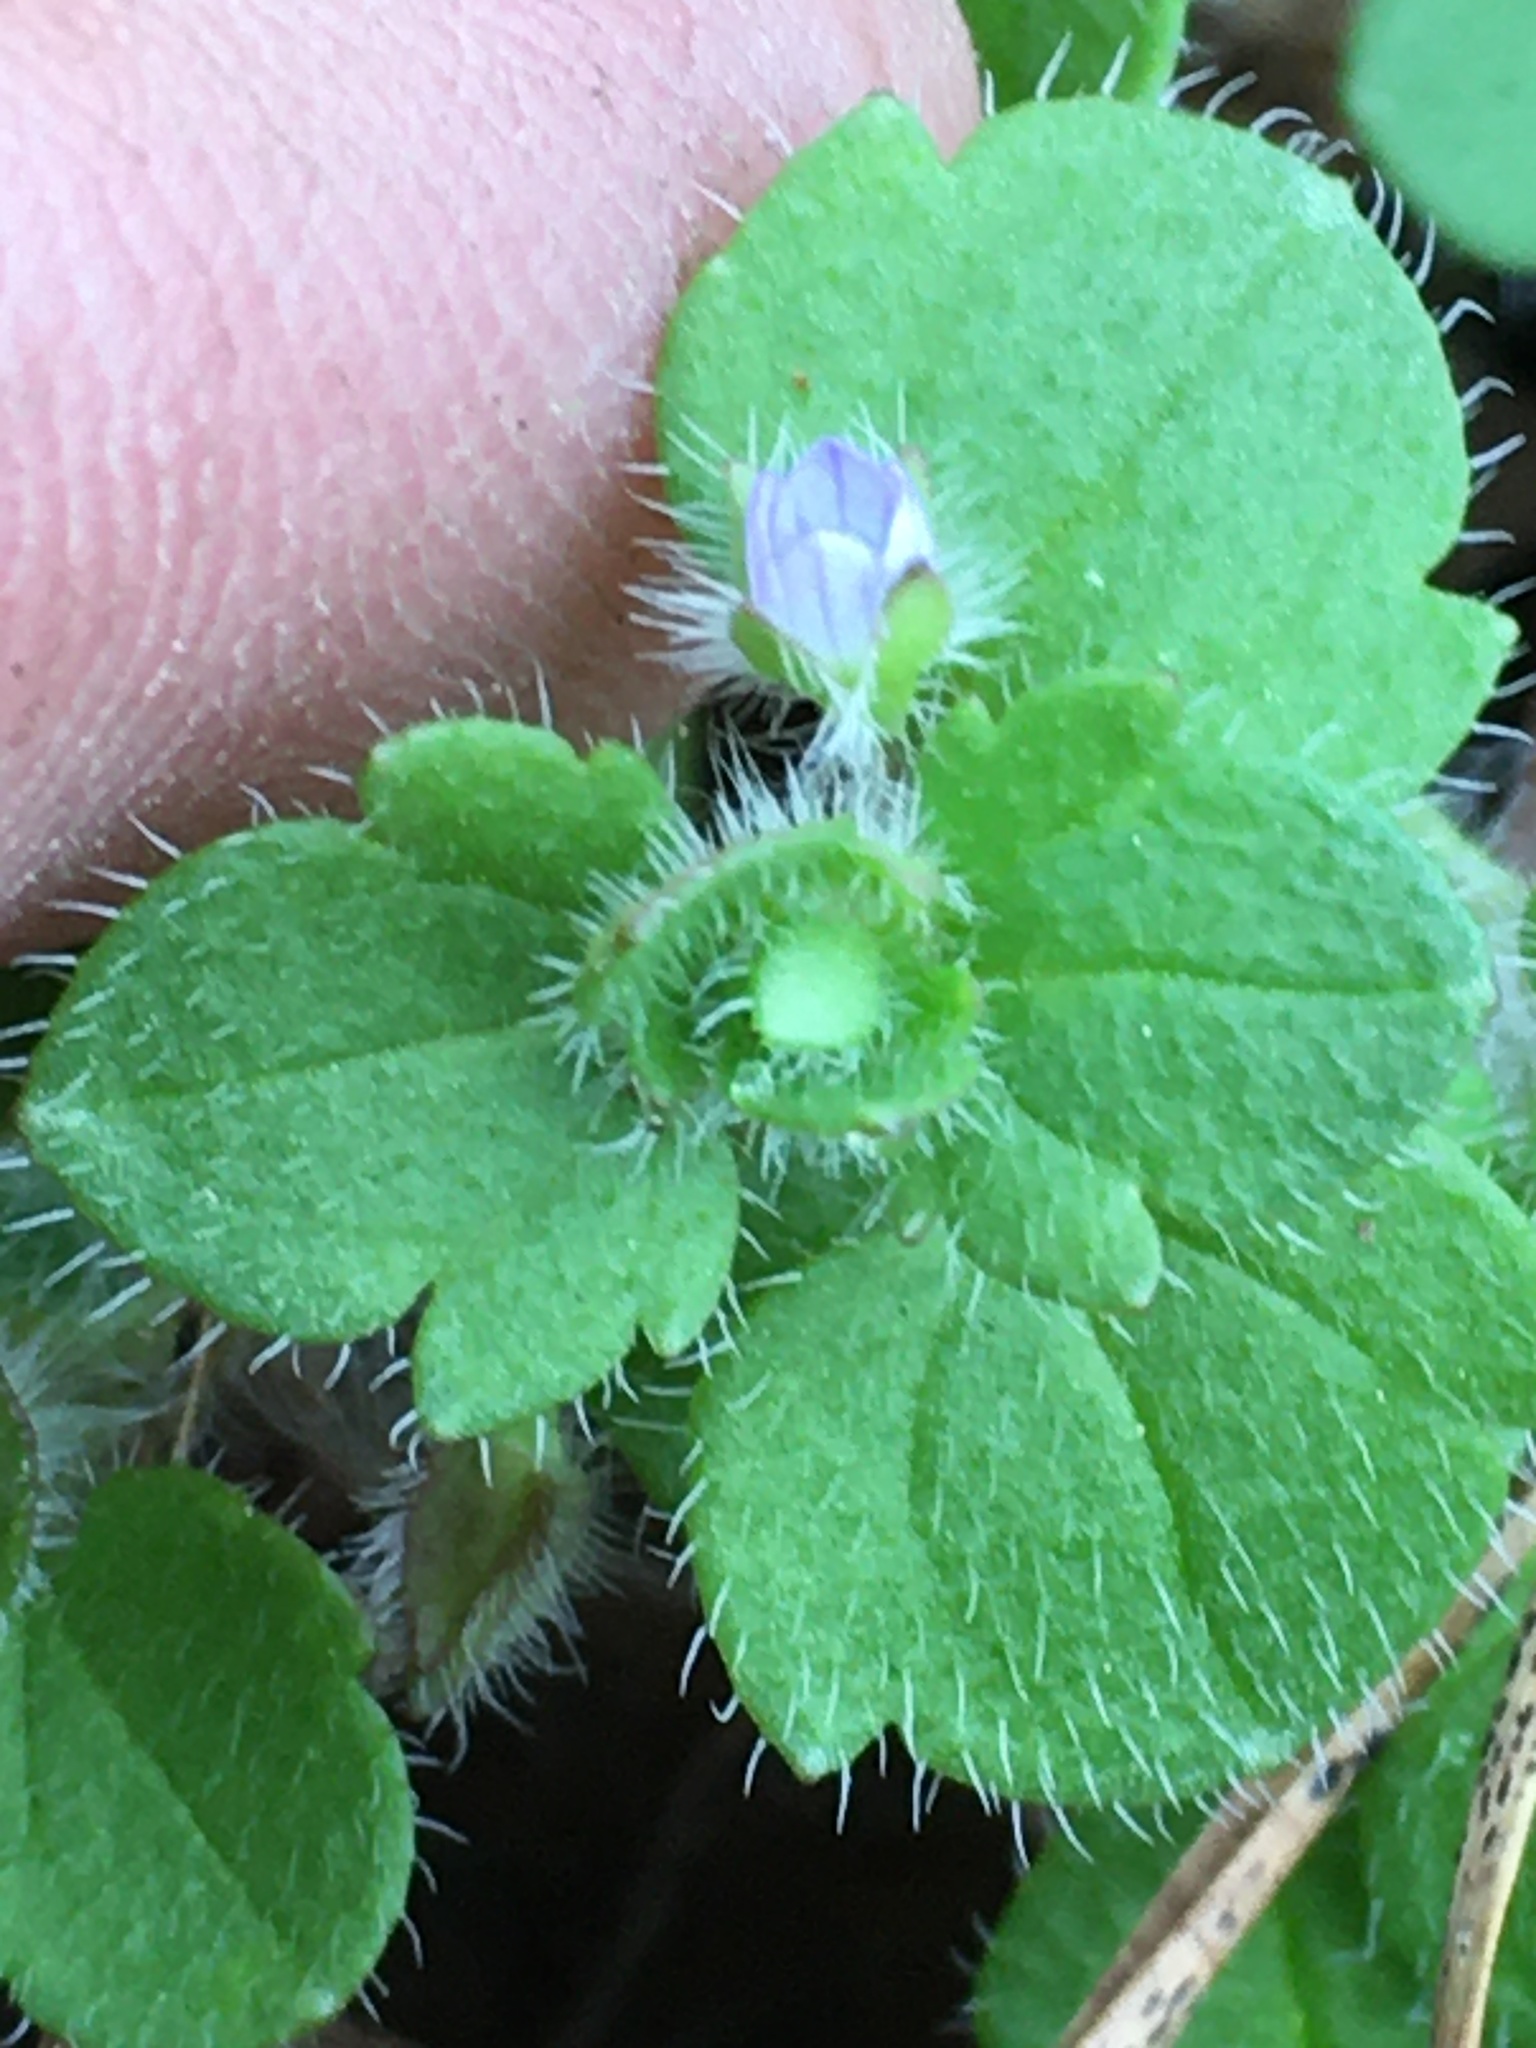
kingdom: Plantae
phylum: Tracheophyta
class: Magnoliopsida
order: Lamiales
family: Plantaginaceae
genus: Veronica
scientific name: Veronica hederifolia
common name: Ivy-leaved speedwell
